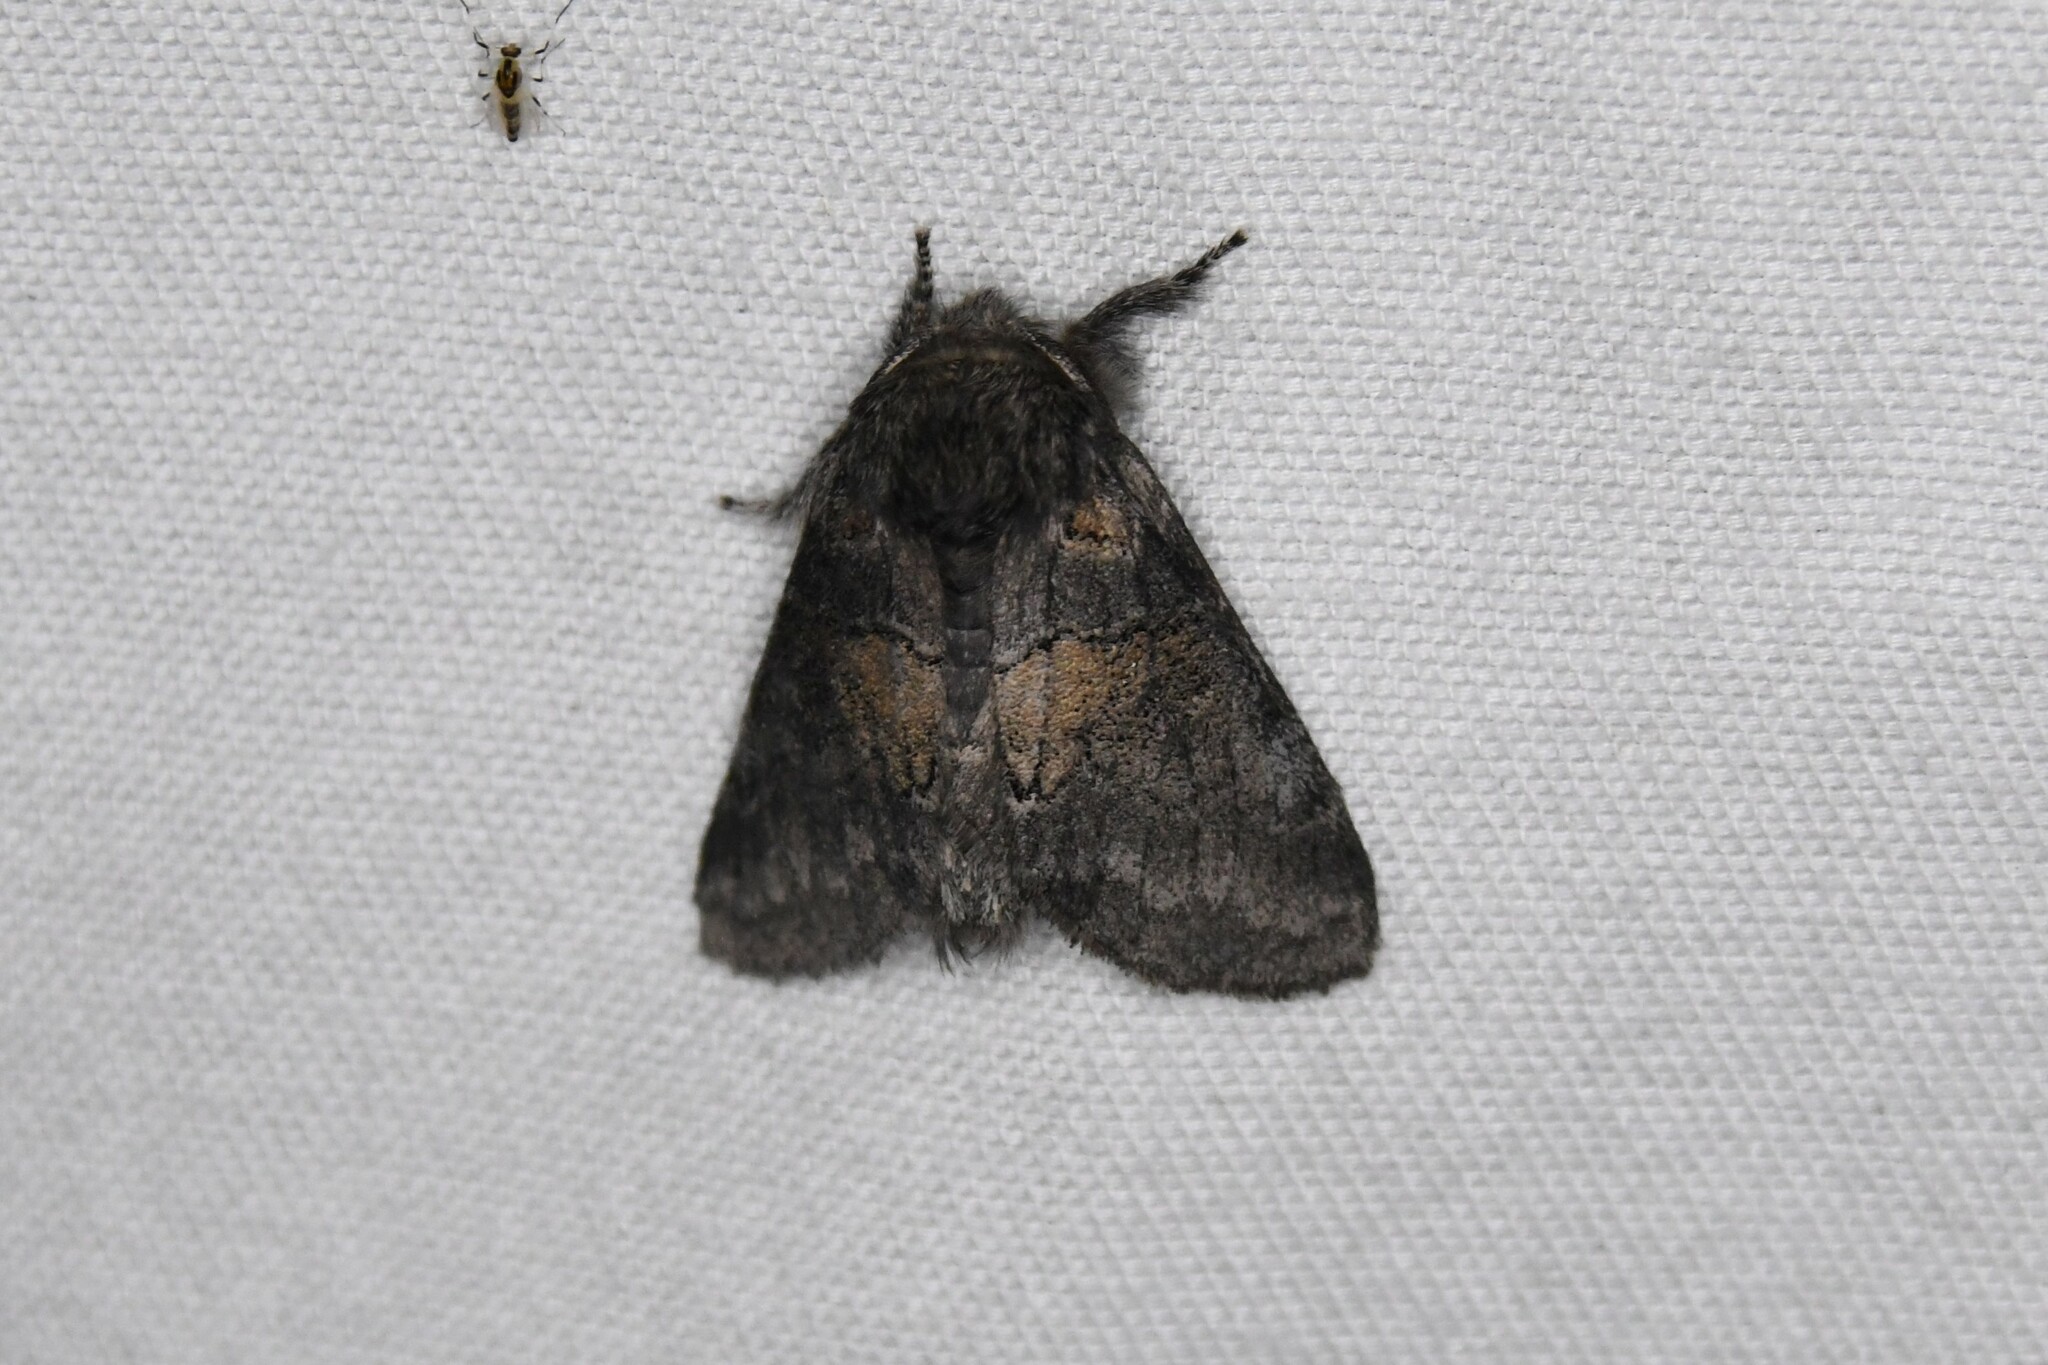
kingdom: Animalia
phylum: Arthropoda
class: Insecta
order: Lepidoptera
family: Notodontidae
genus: Gluphisia
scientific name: Gluphisia septentrionis
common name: Common gluphisia
